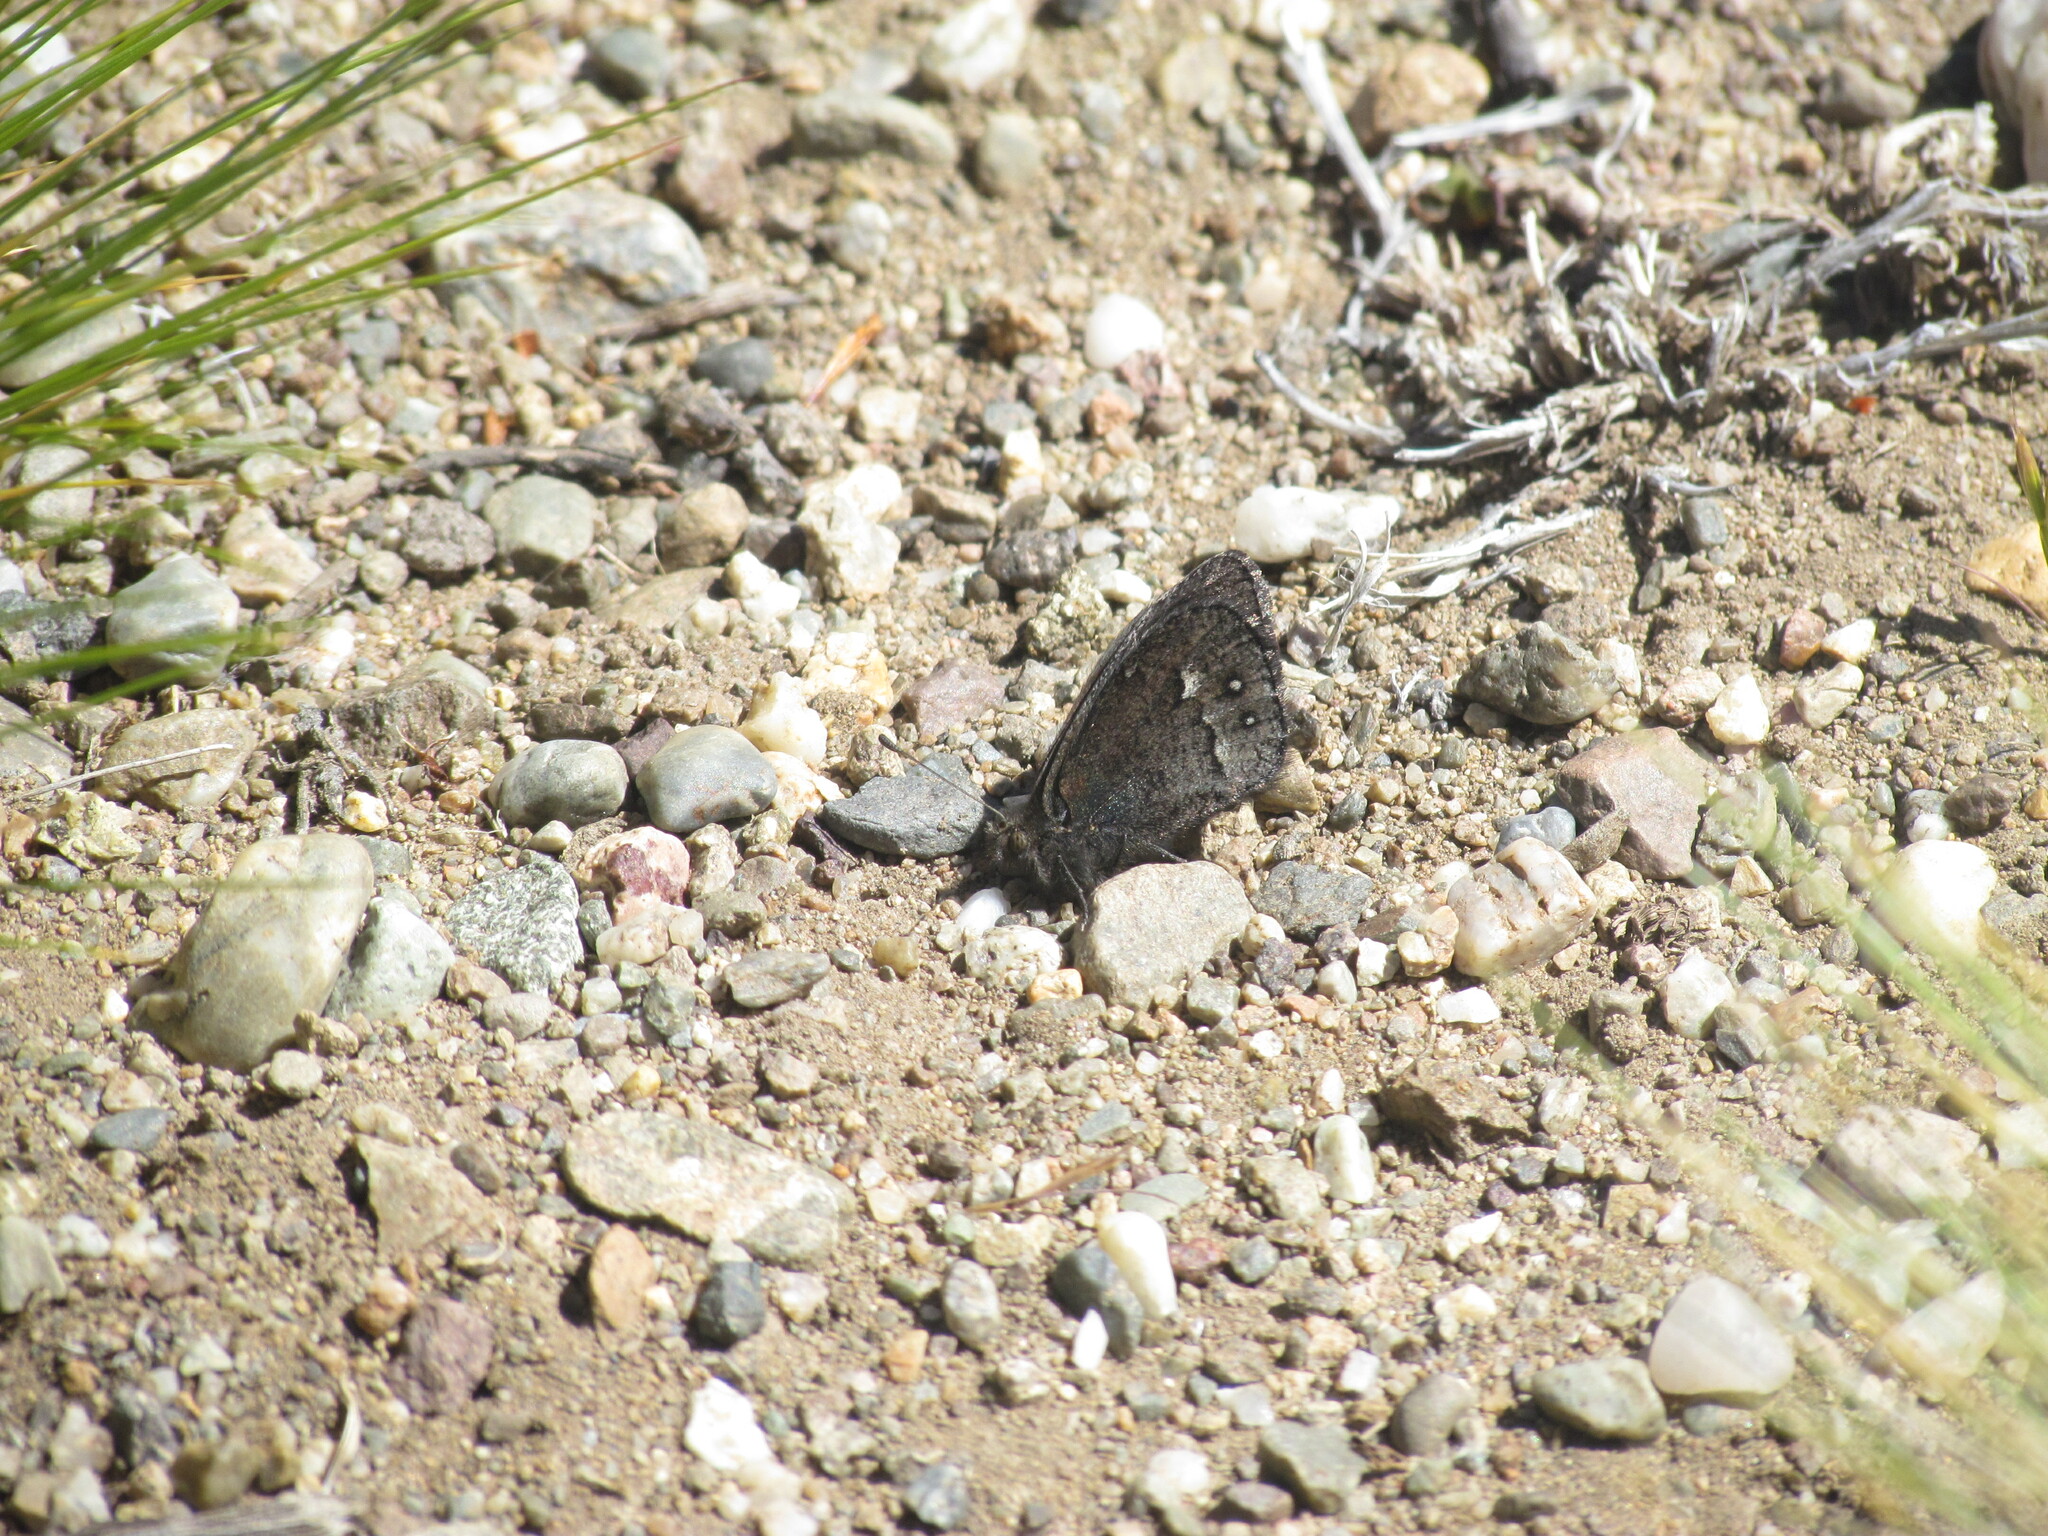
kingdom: Animalia
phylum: Arthropoda
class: Insecta
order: Lepidoptera
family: Nymphalidae
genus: Faunula
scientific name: Faunula patagonica
